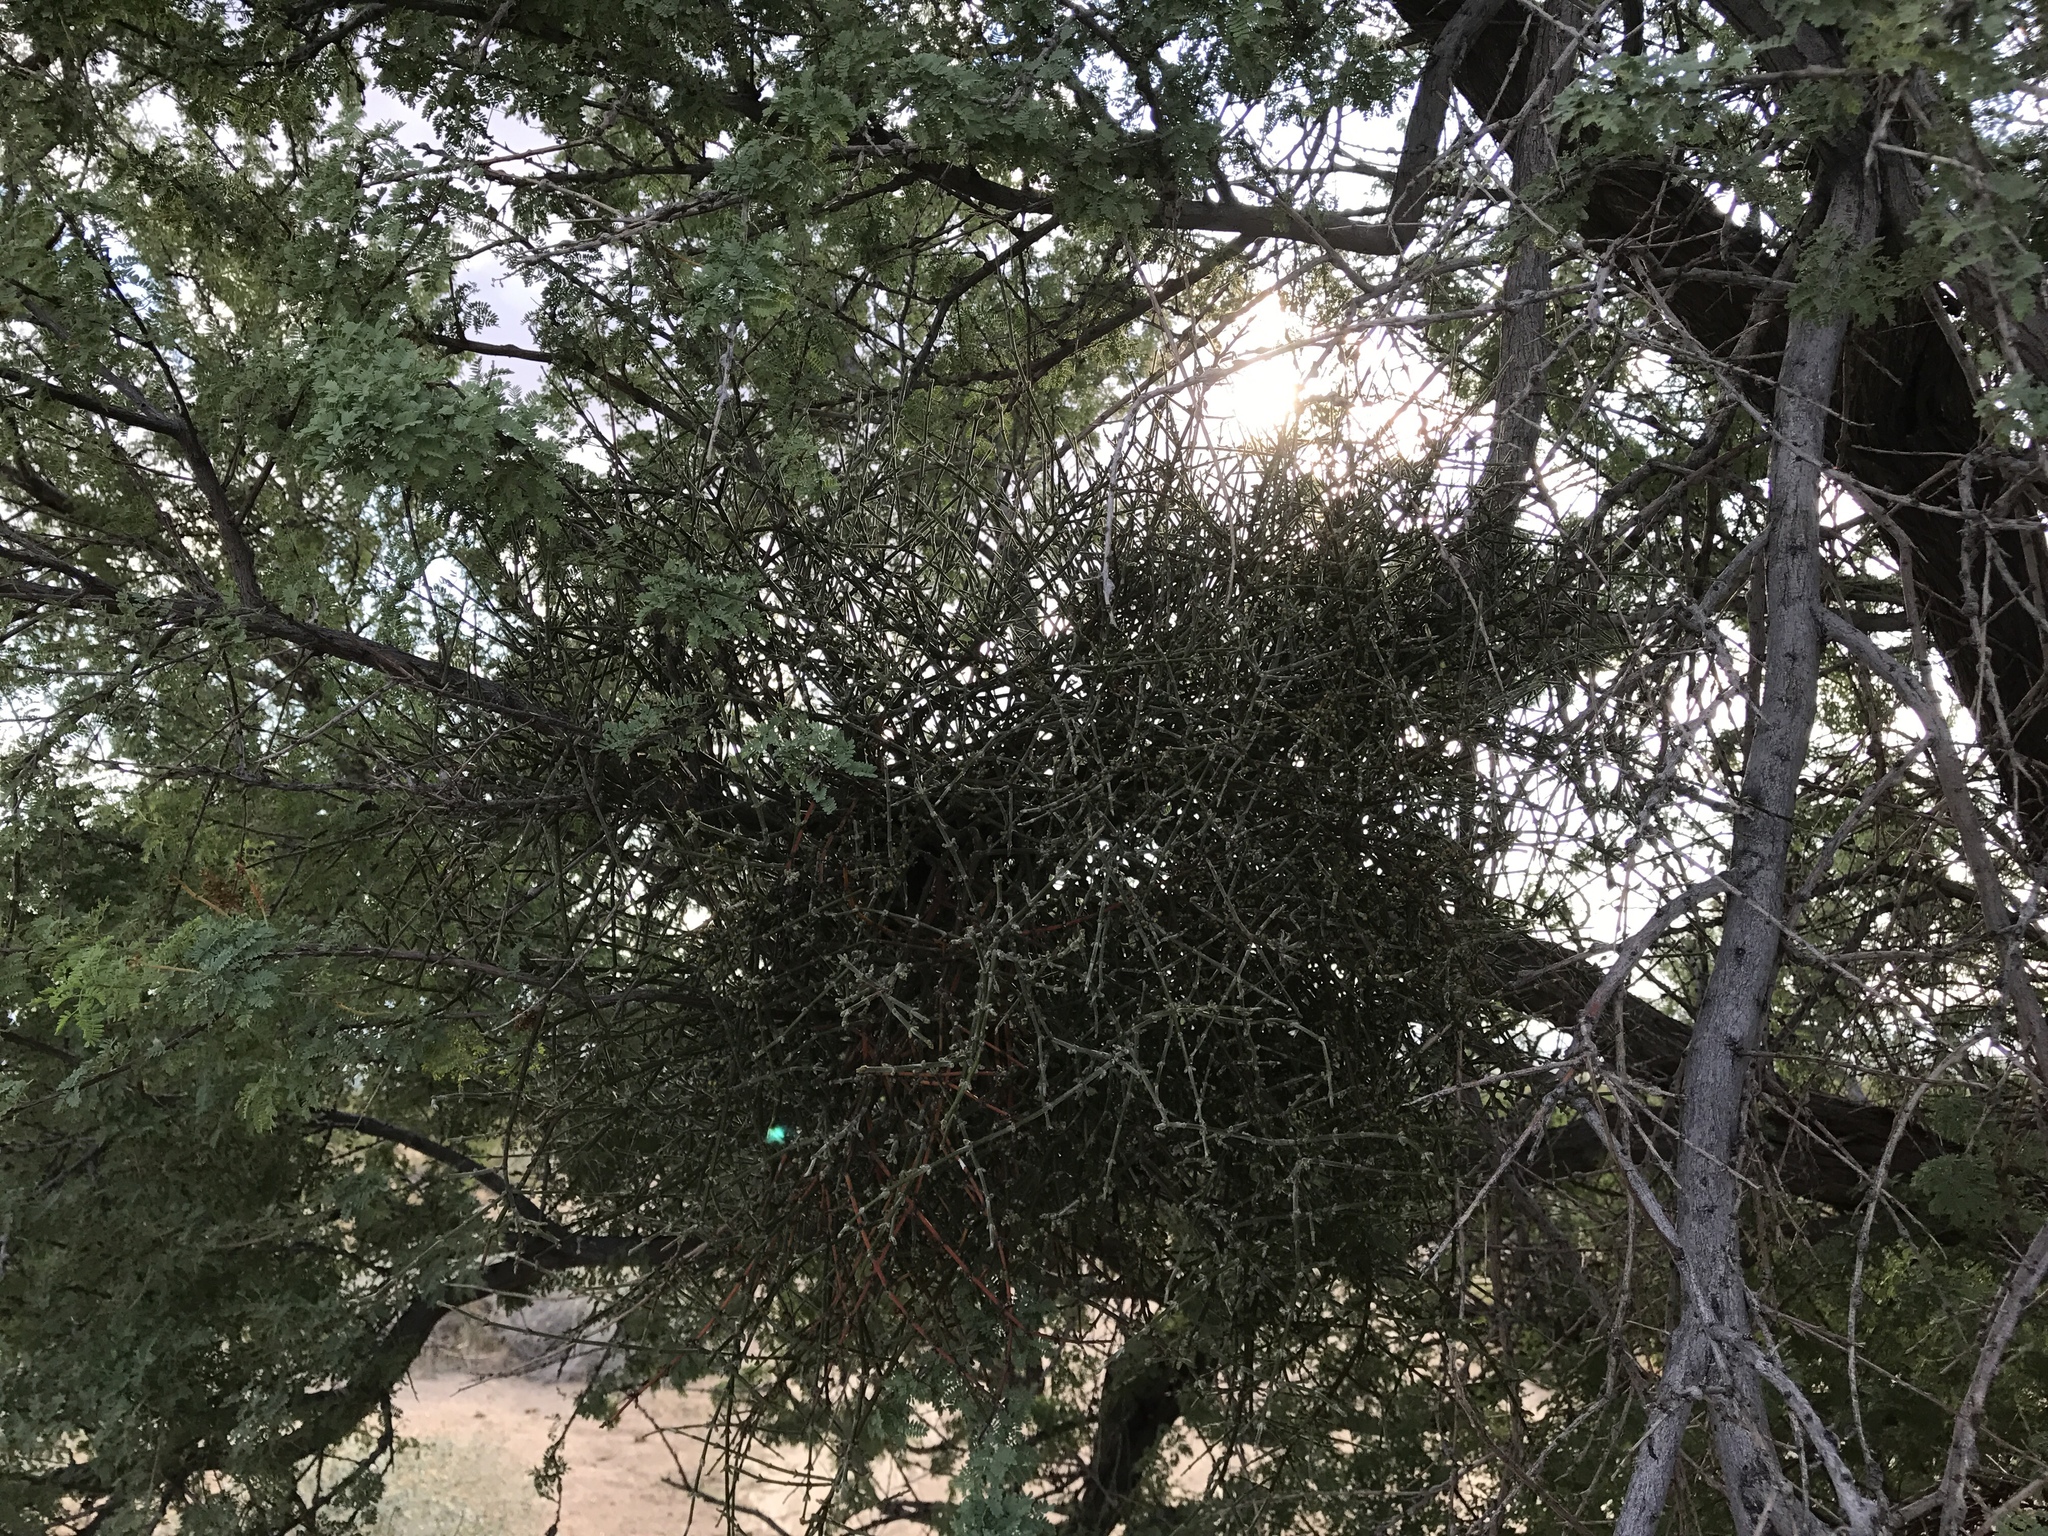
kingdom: Plantae
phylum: Tracheophyta
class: Magnoliopsida
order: Santalales
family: Viscaceae
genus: Phoradendron
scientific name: Phoradendron californicum
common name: Acacia mistletoe
